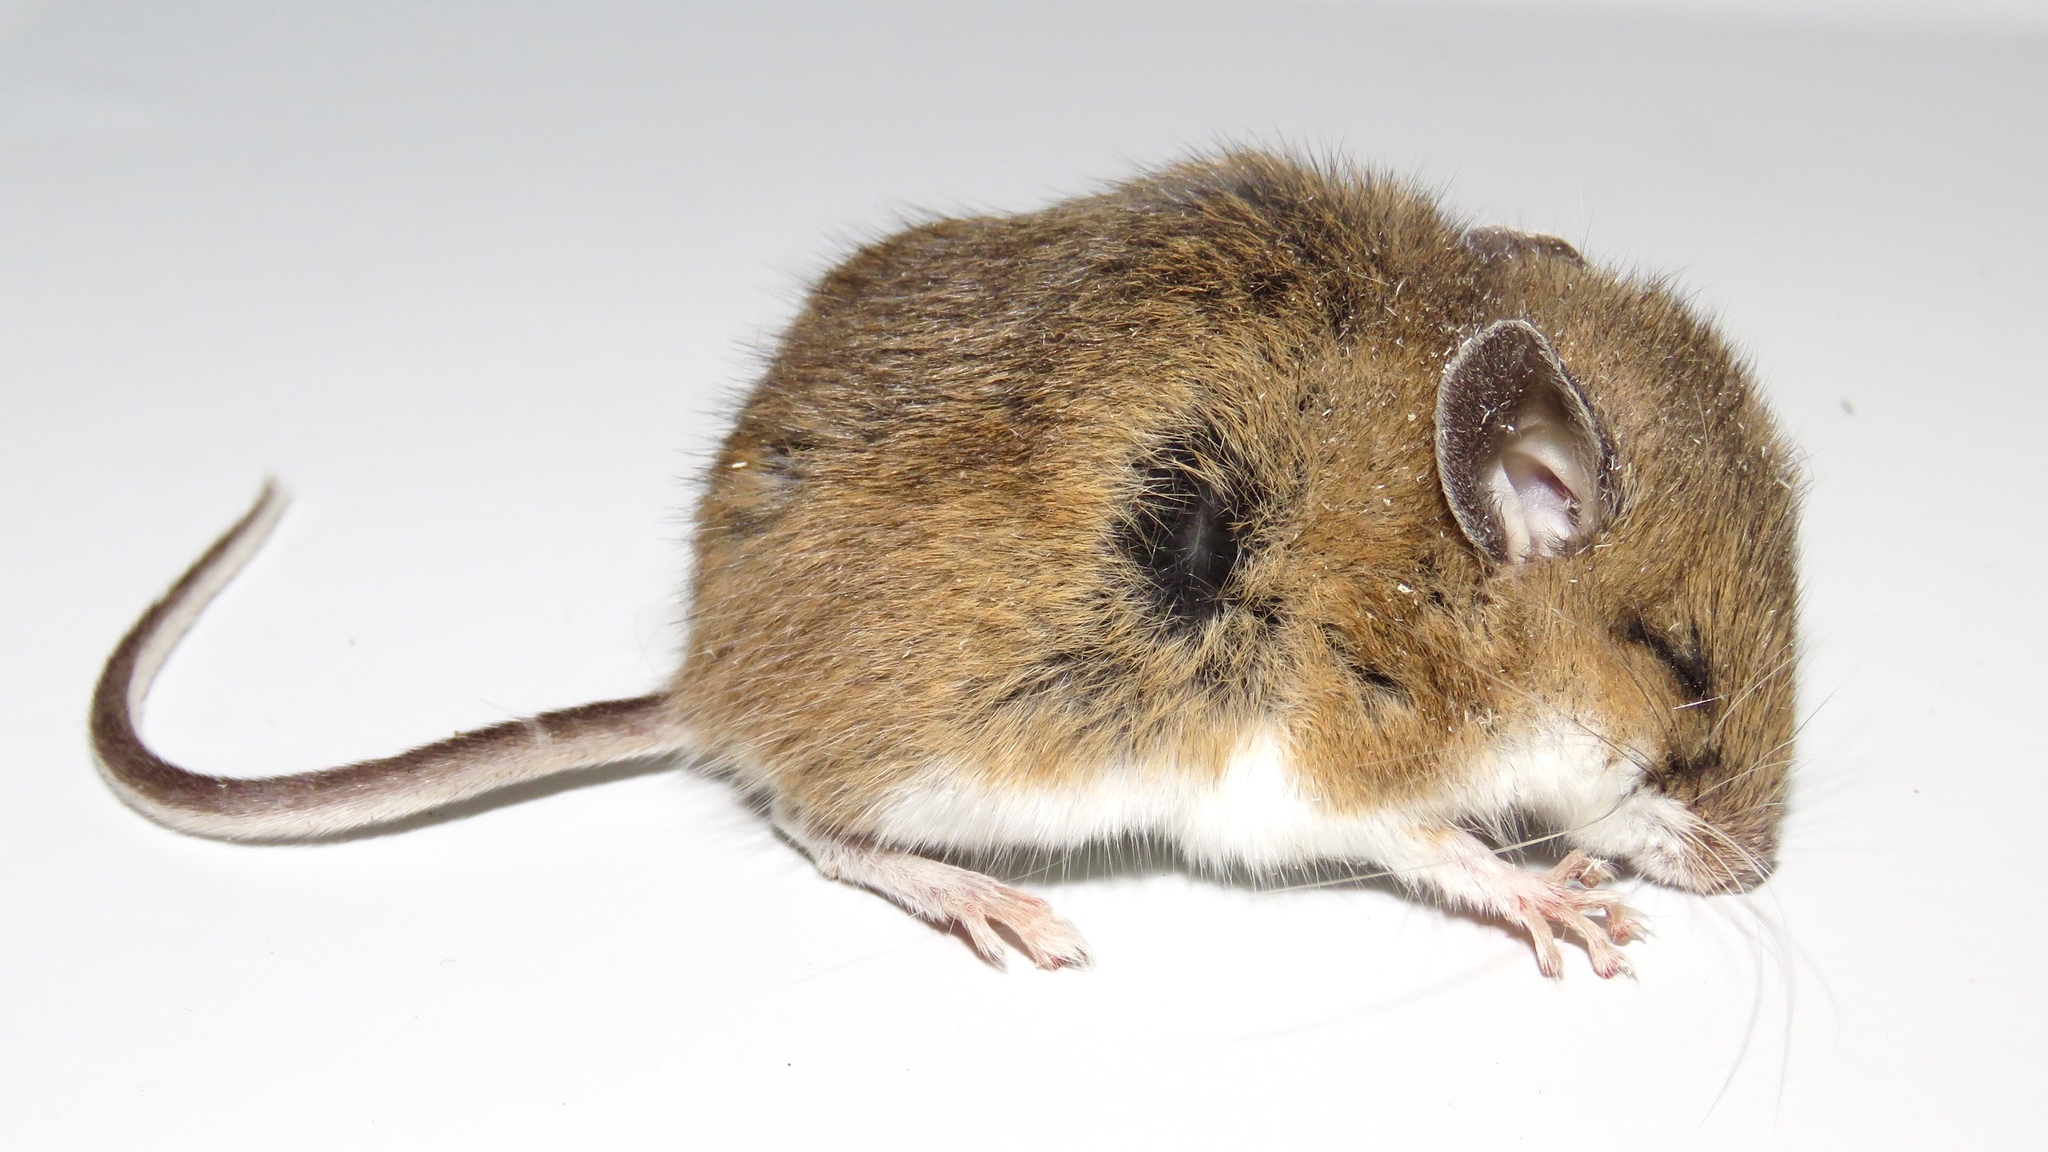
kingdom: Animalia
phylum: Chordata
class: Mammalia
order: Rodentia
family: Cricetidae
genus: Peromyscus
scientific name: Peromyscus maniculatus
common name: Deer mouse
